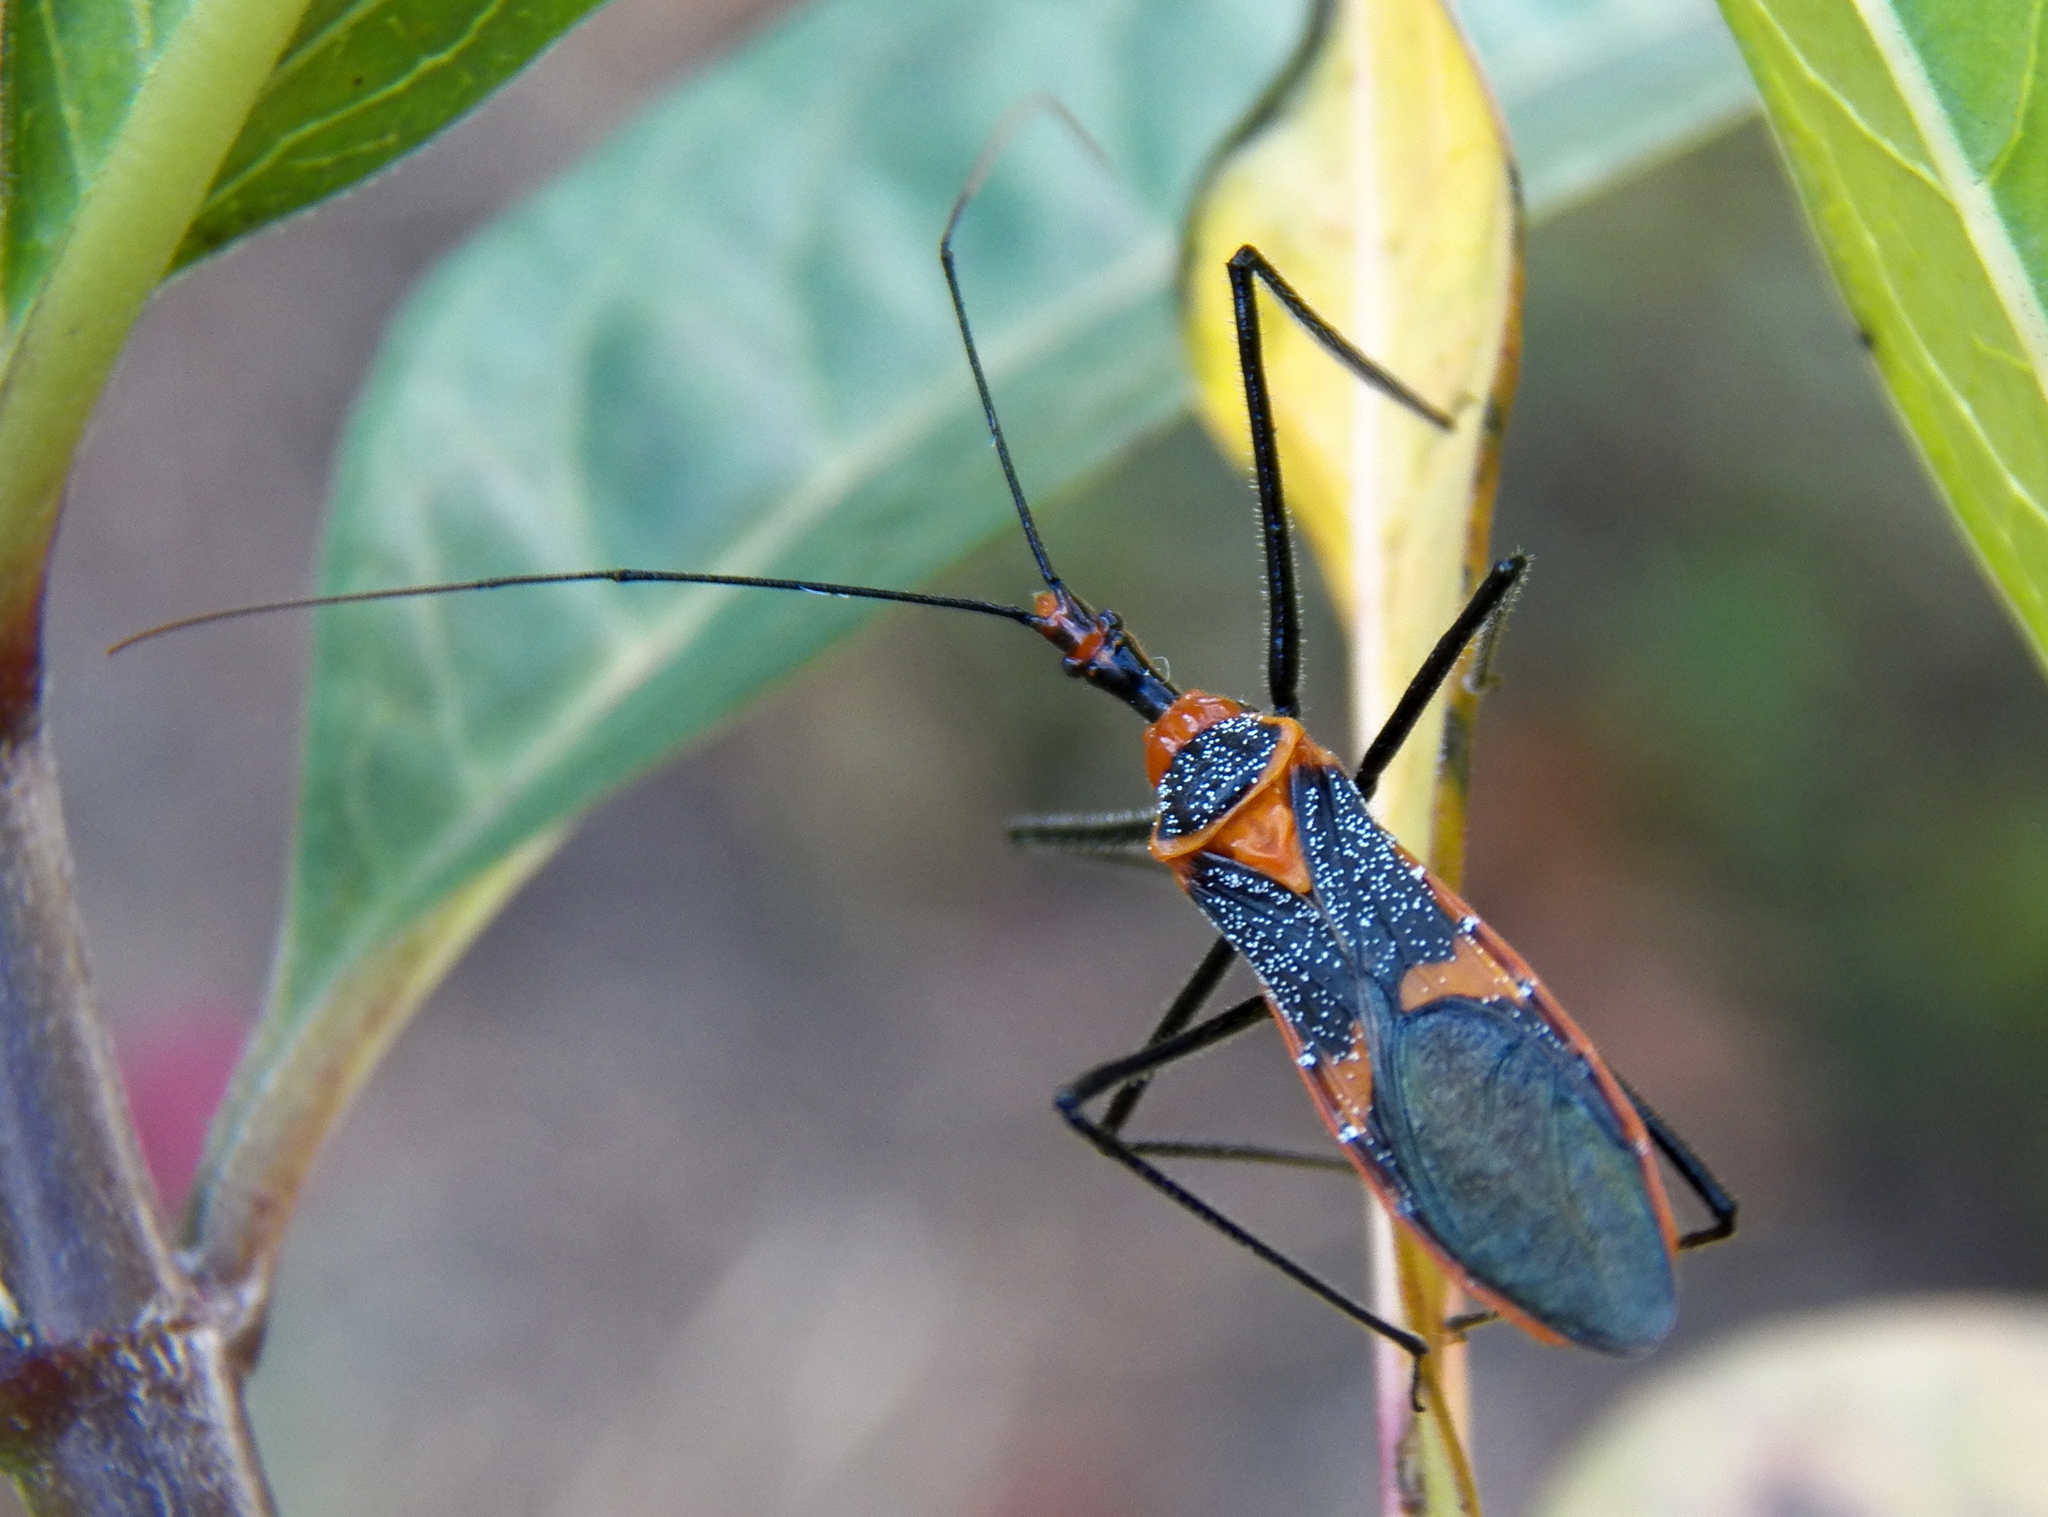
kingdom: Animalia
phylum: Arthropoda
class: Insecta
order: Hemiptera
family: Reduviidae
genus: Zelus
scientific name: Zelus longipes
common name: Milkweed assassin bug
